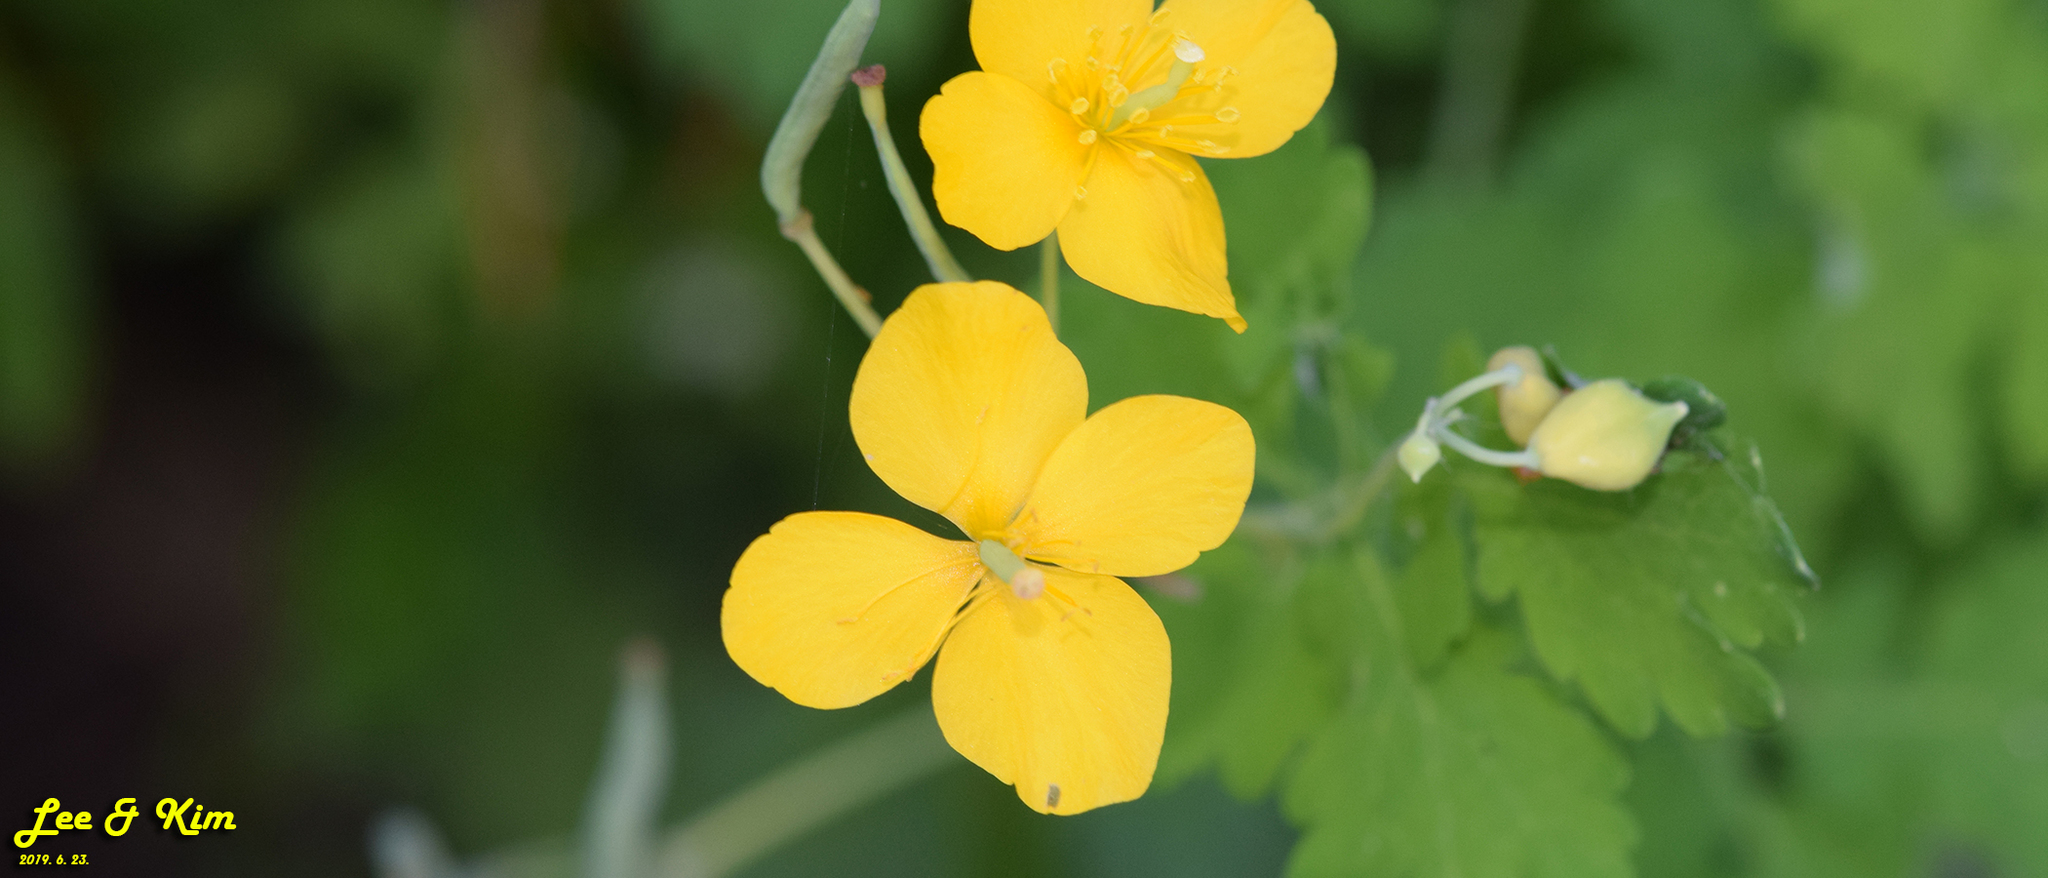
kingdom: Plantae
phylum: Tracheophyta
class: Magnoliopsida
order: Ranunculales
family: Papaveraceae
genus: Chelidonium
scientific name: Chelidonium majus
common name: Greater celandine
